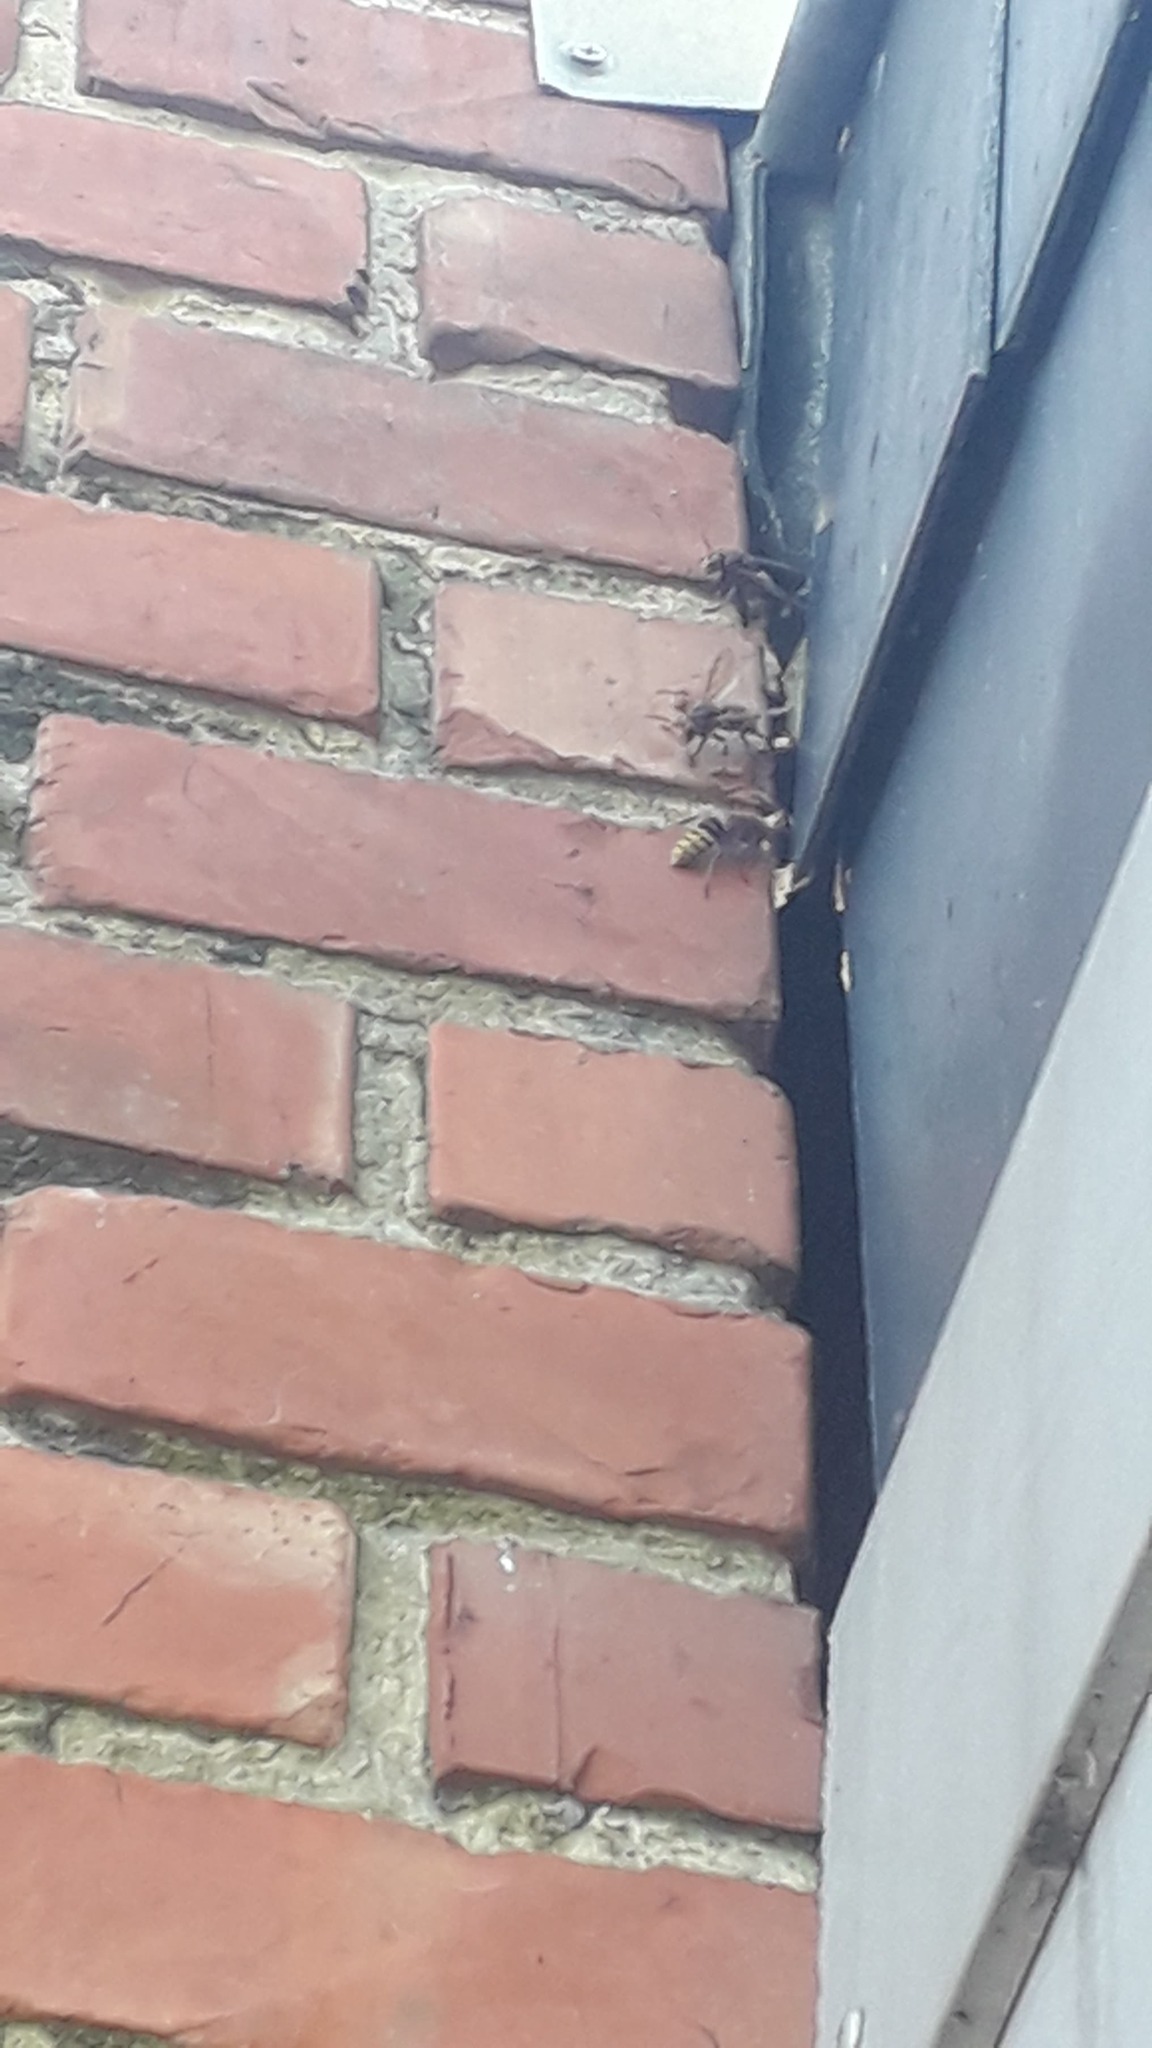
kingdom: Animalia
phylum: Arthropoda
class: Insecta
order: Hymenoptera
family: Vespidae
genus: Vespa
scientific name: Vespa crabro
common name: Hornet
